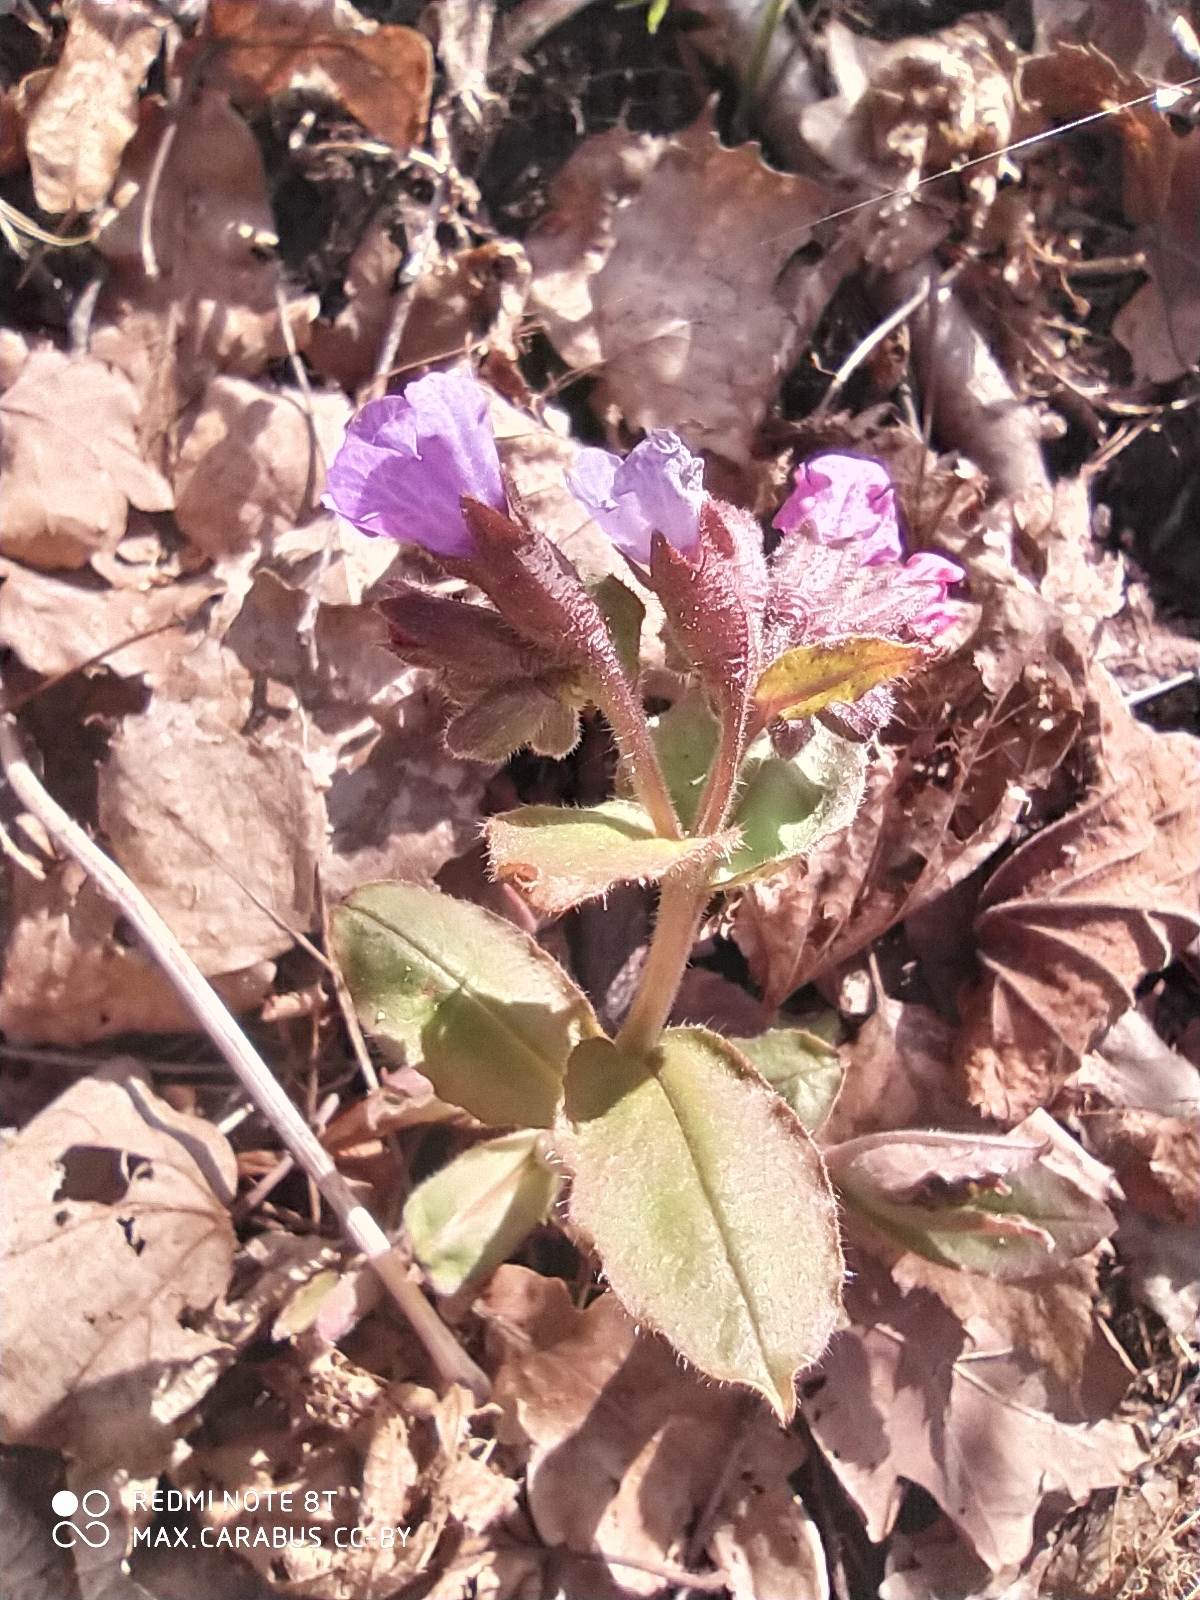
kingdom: Plantae
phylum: Tracheophyta
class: Magnoliopsida
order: Boraginales
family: Boraginaceae
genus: Pulmonaria
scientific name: Pulmonaria obscura
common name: Suffolk lungwort
